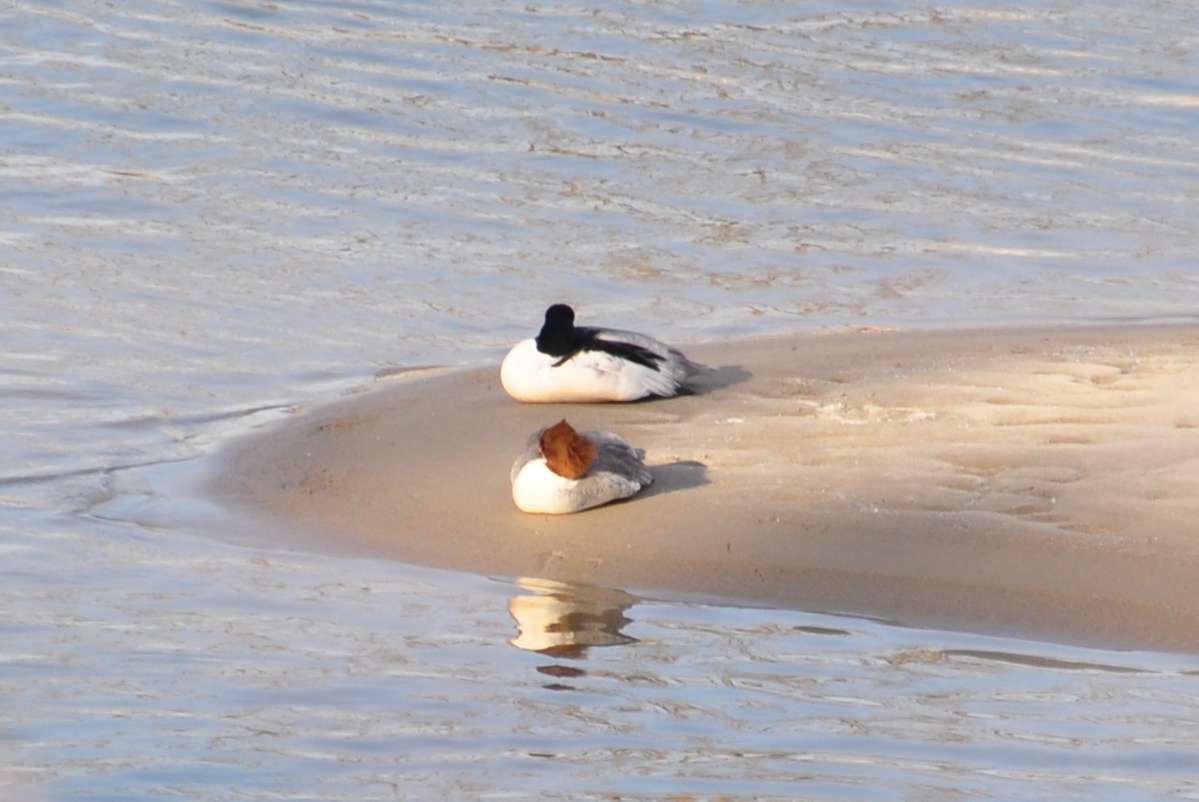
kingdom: Animalia
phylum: Chordata
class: Aves
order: Anseriformes
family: Anatidae
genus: Mergus
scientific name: Mergus merganser
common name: Common merganser
